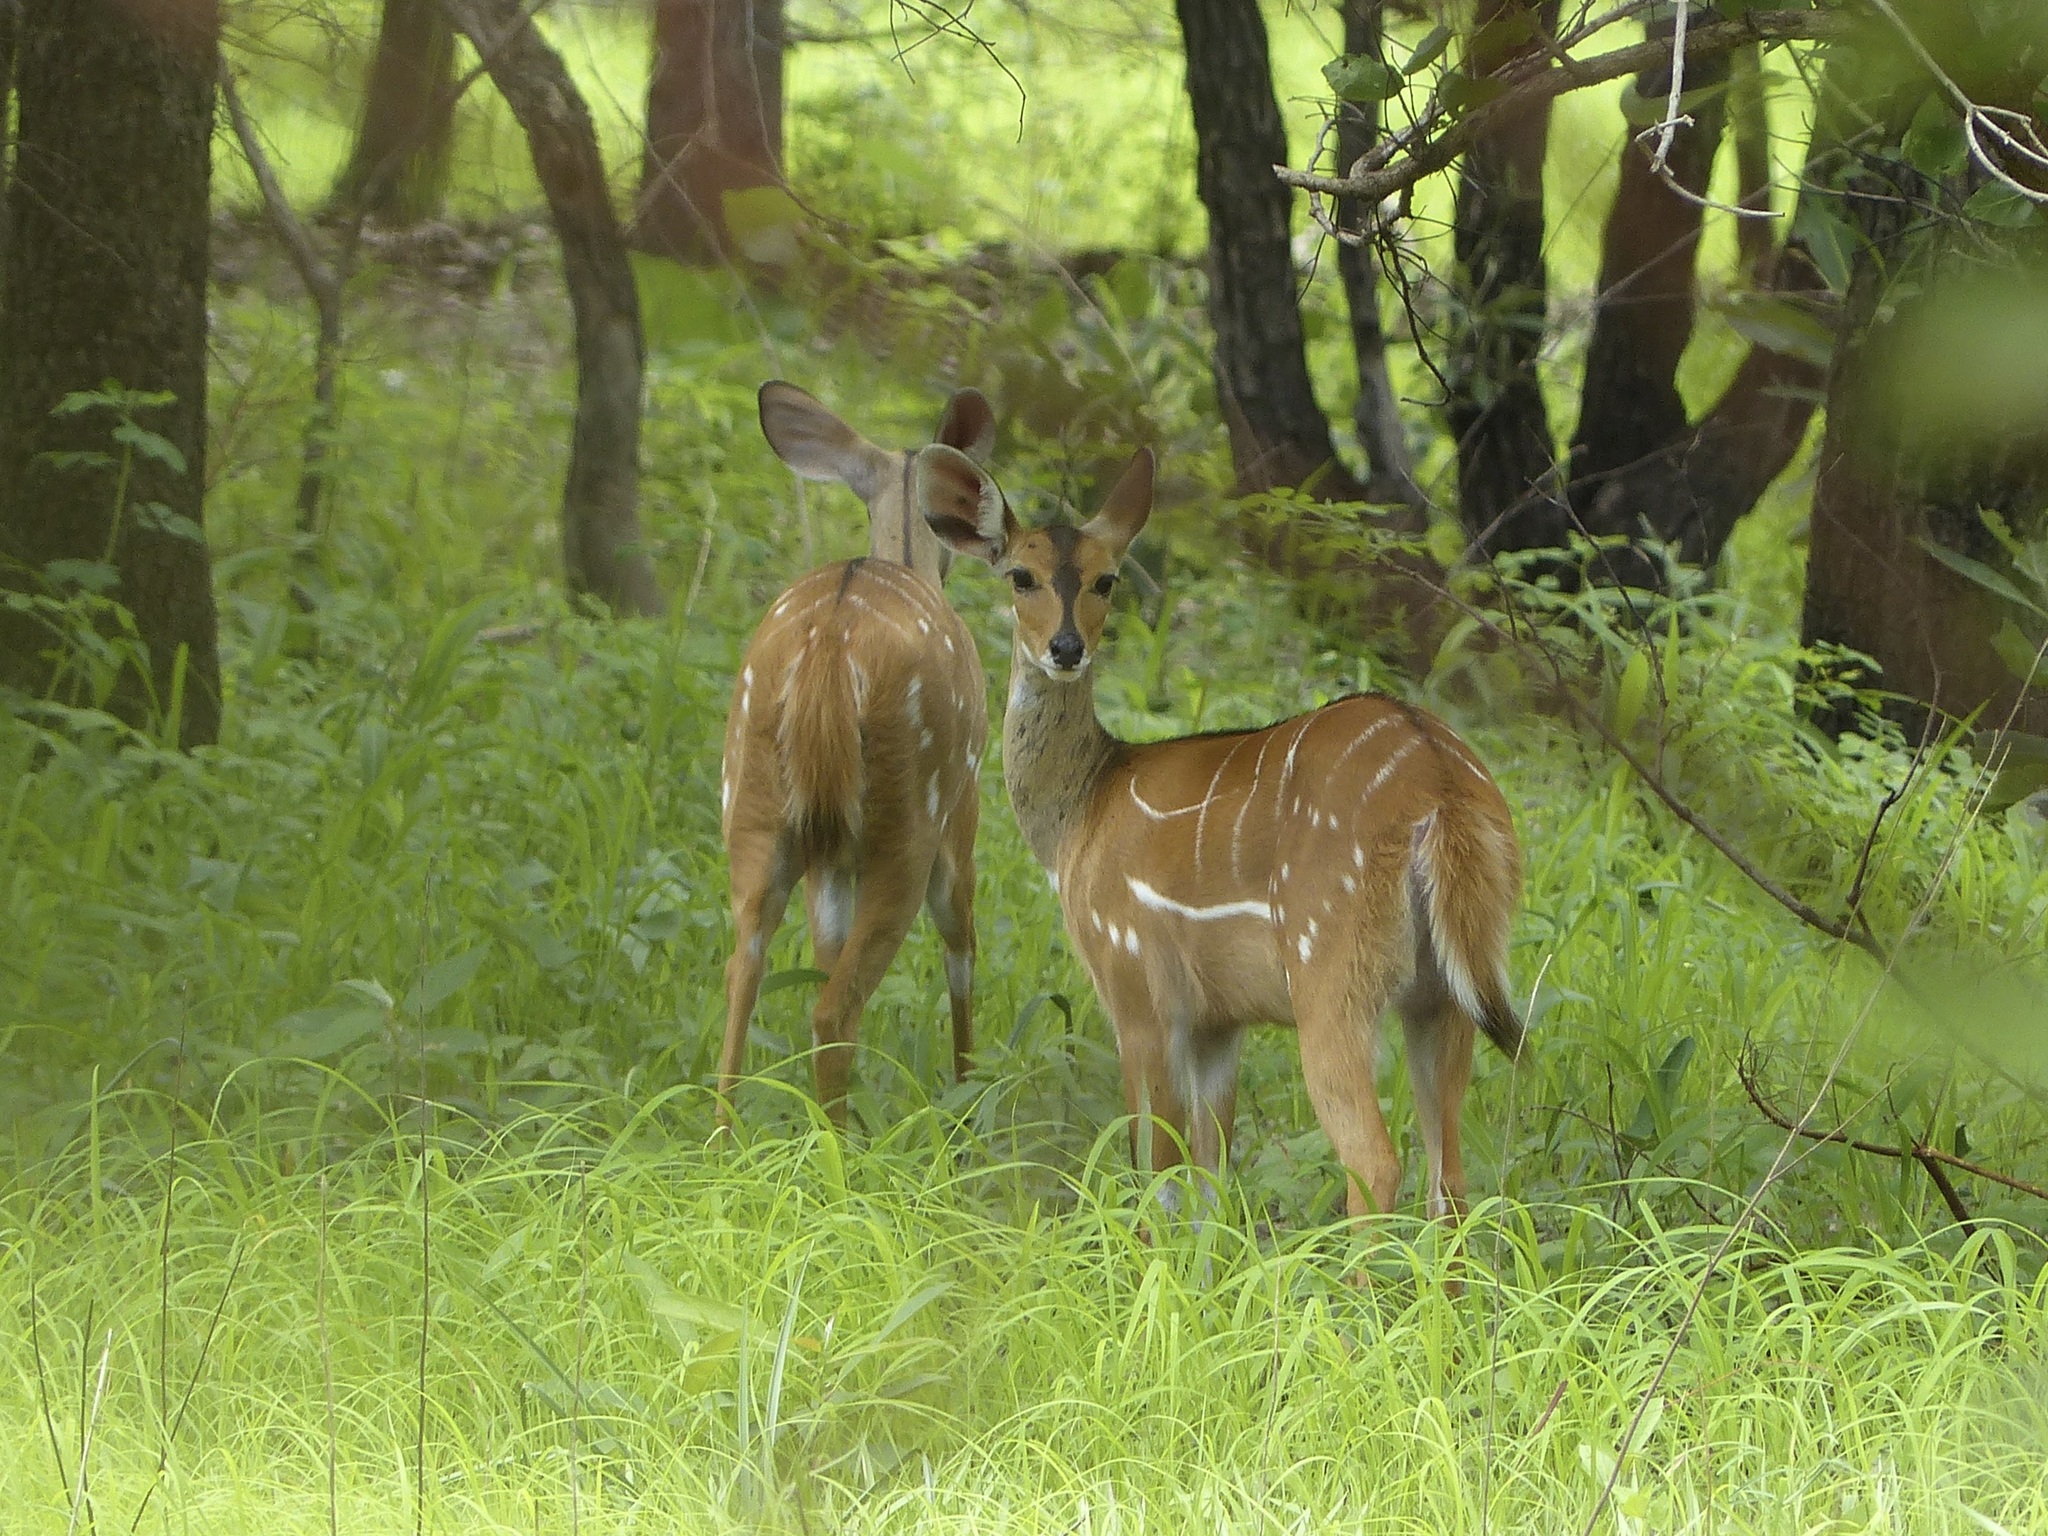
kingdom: Animalia
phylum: Chordata
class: Mammalia
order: Artiodactyla
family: Bovidae
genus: Tragelaphus
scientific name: Tragelaphus scriptus
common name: Bushbuck
